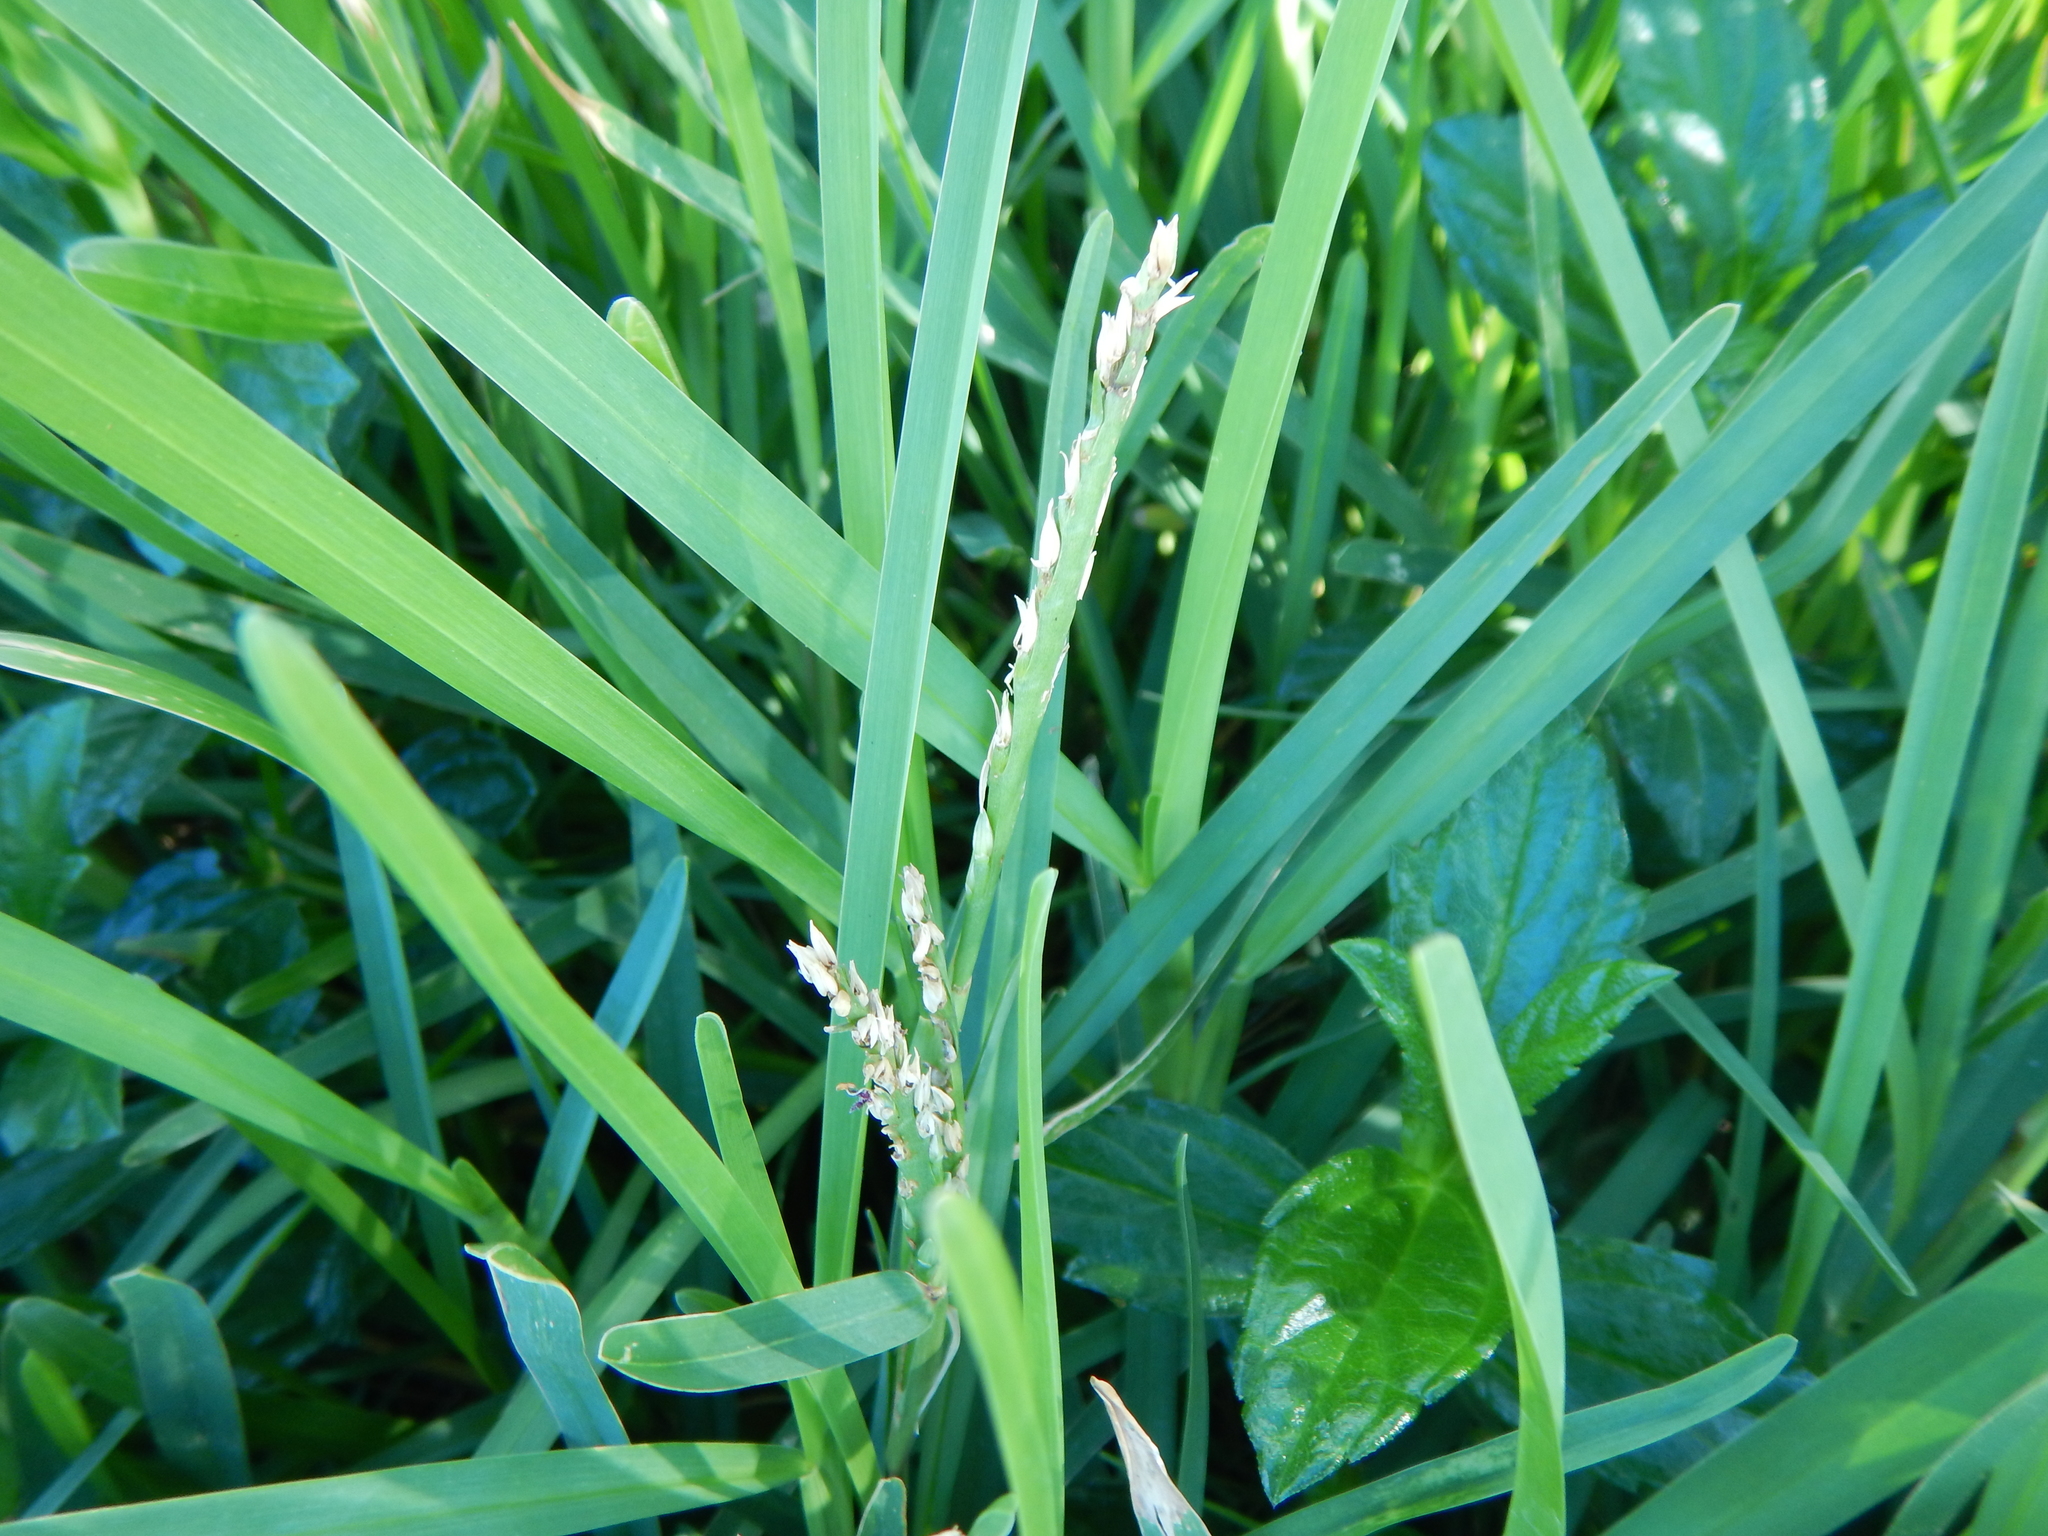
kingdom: Plantae
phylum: Tracheophyta
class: Liliopsida
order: Poales
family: Poaceae
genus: Stenotaphrum
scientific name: Stenotaphrum secundatum
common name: St. augustine grass
